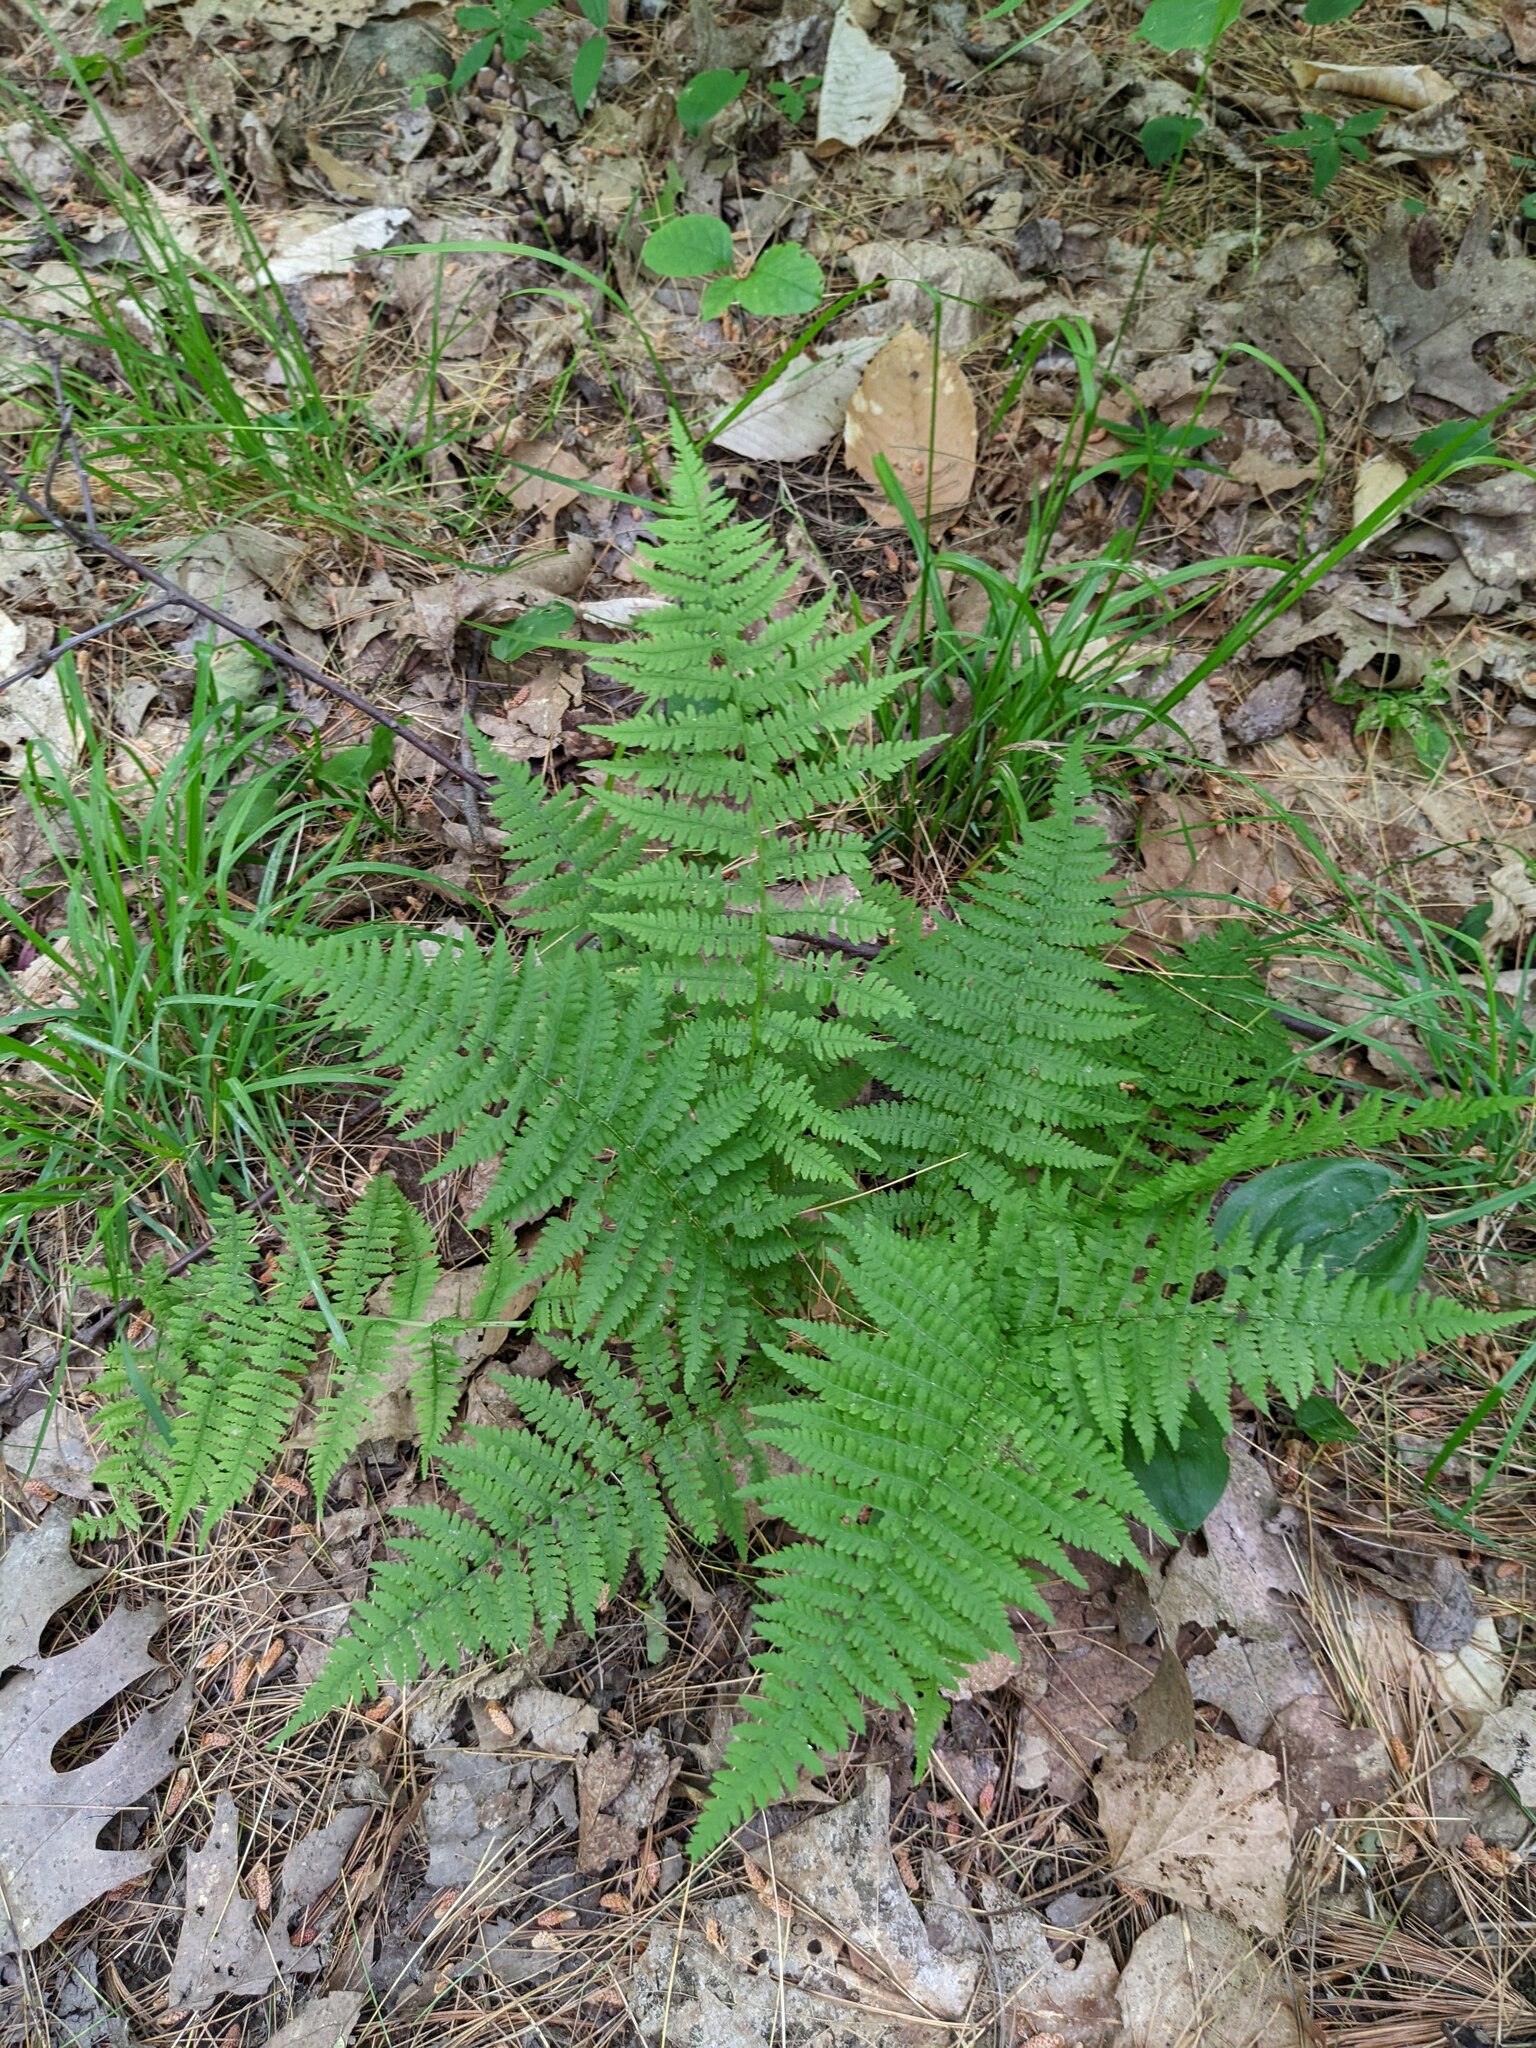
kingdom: Plantae
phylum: Tracheophyta
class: Polypodiopsida
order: Polypodiales
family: Athyriaceae
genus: Athyrium
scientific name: Athyrium angustum
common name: Northern lady fern
